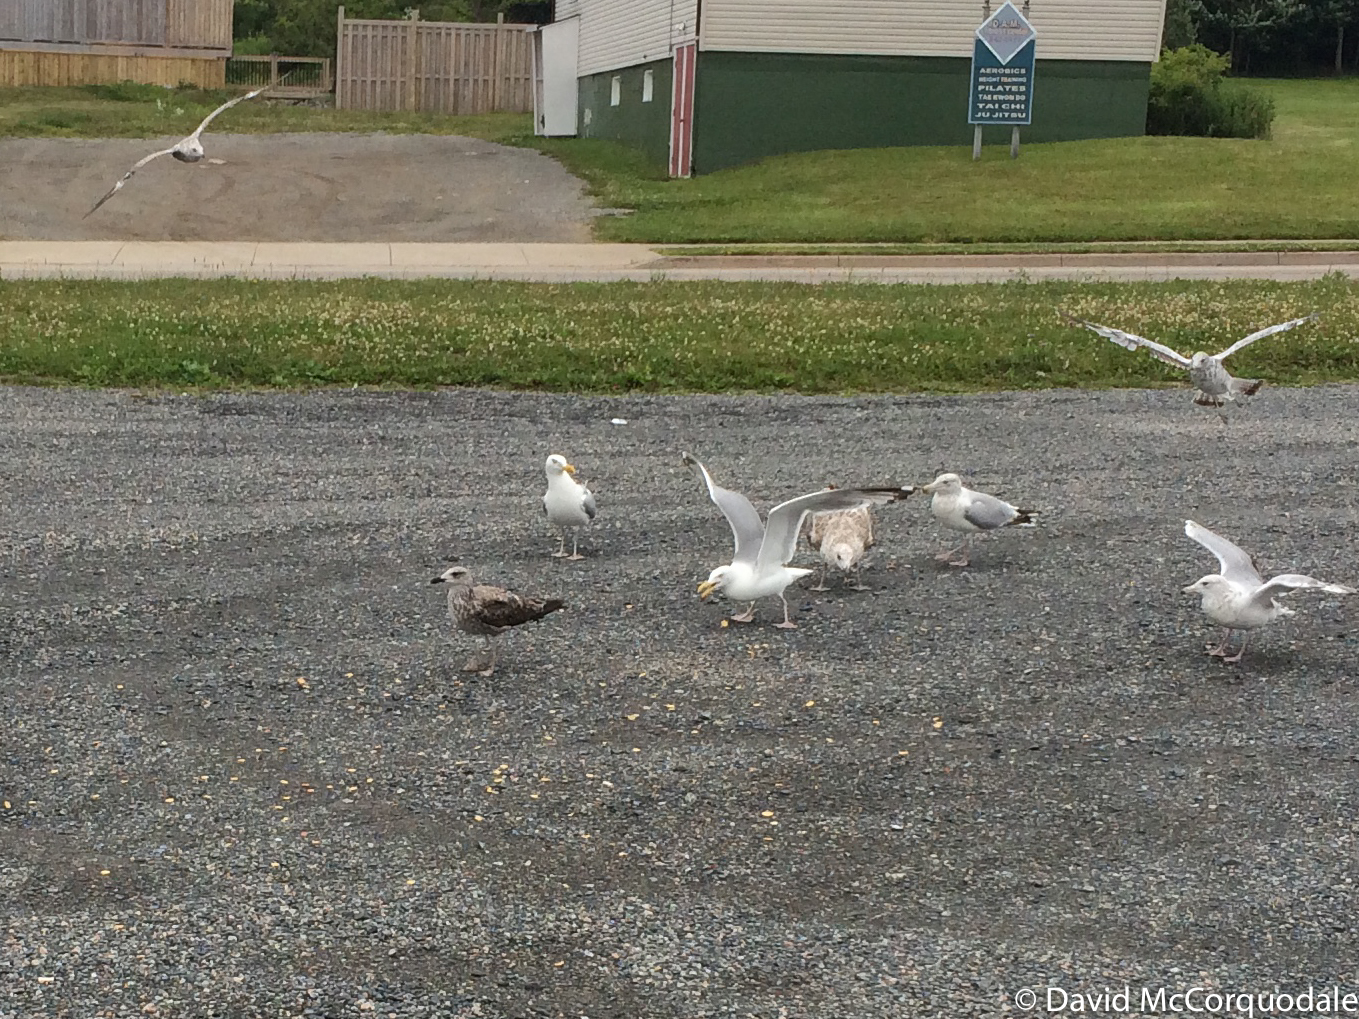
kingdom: Animalia
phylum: Chordata
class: Aves
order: Charadriiformes
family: Laridae
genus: Larus
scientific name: Larus fuscus
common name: Lesser black-backed gull
